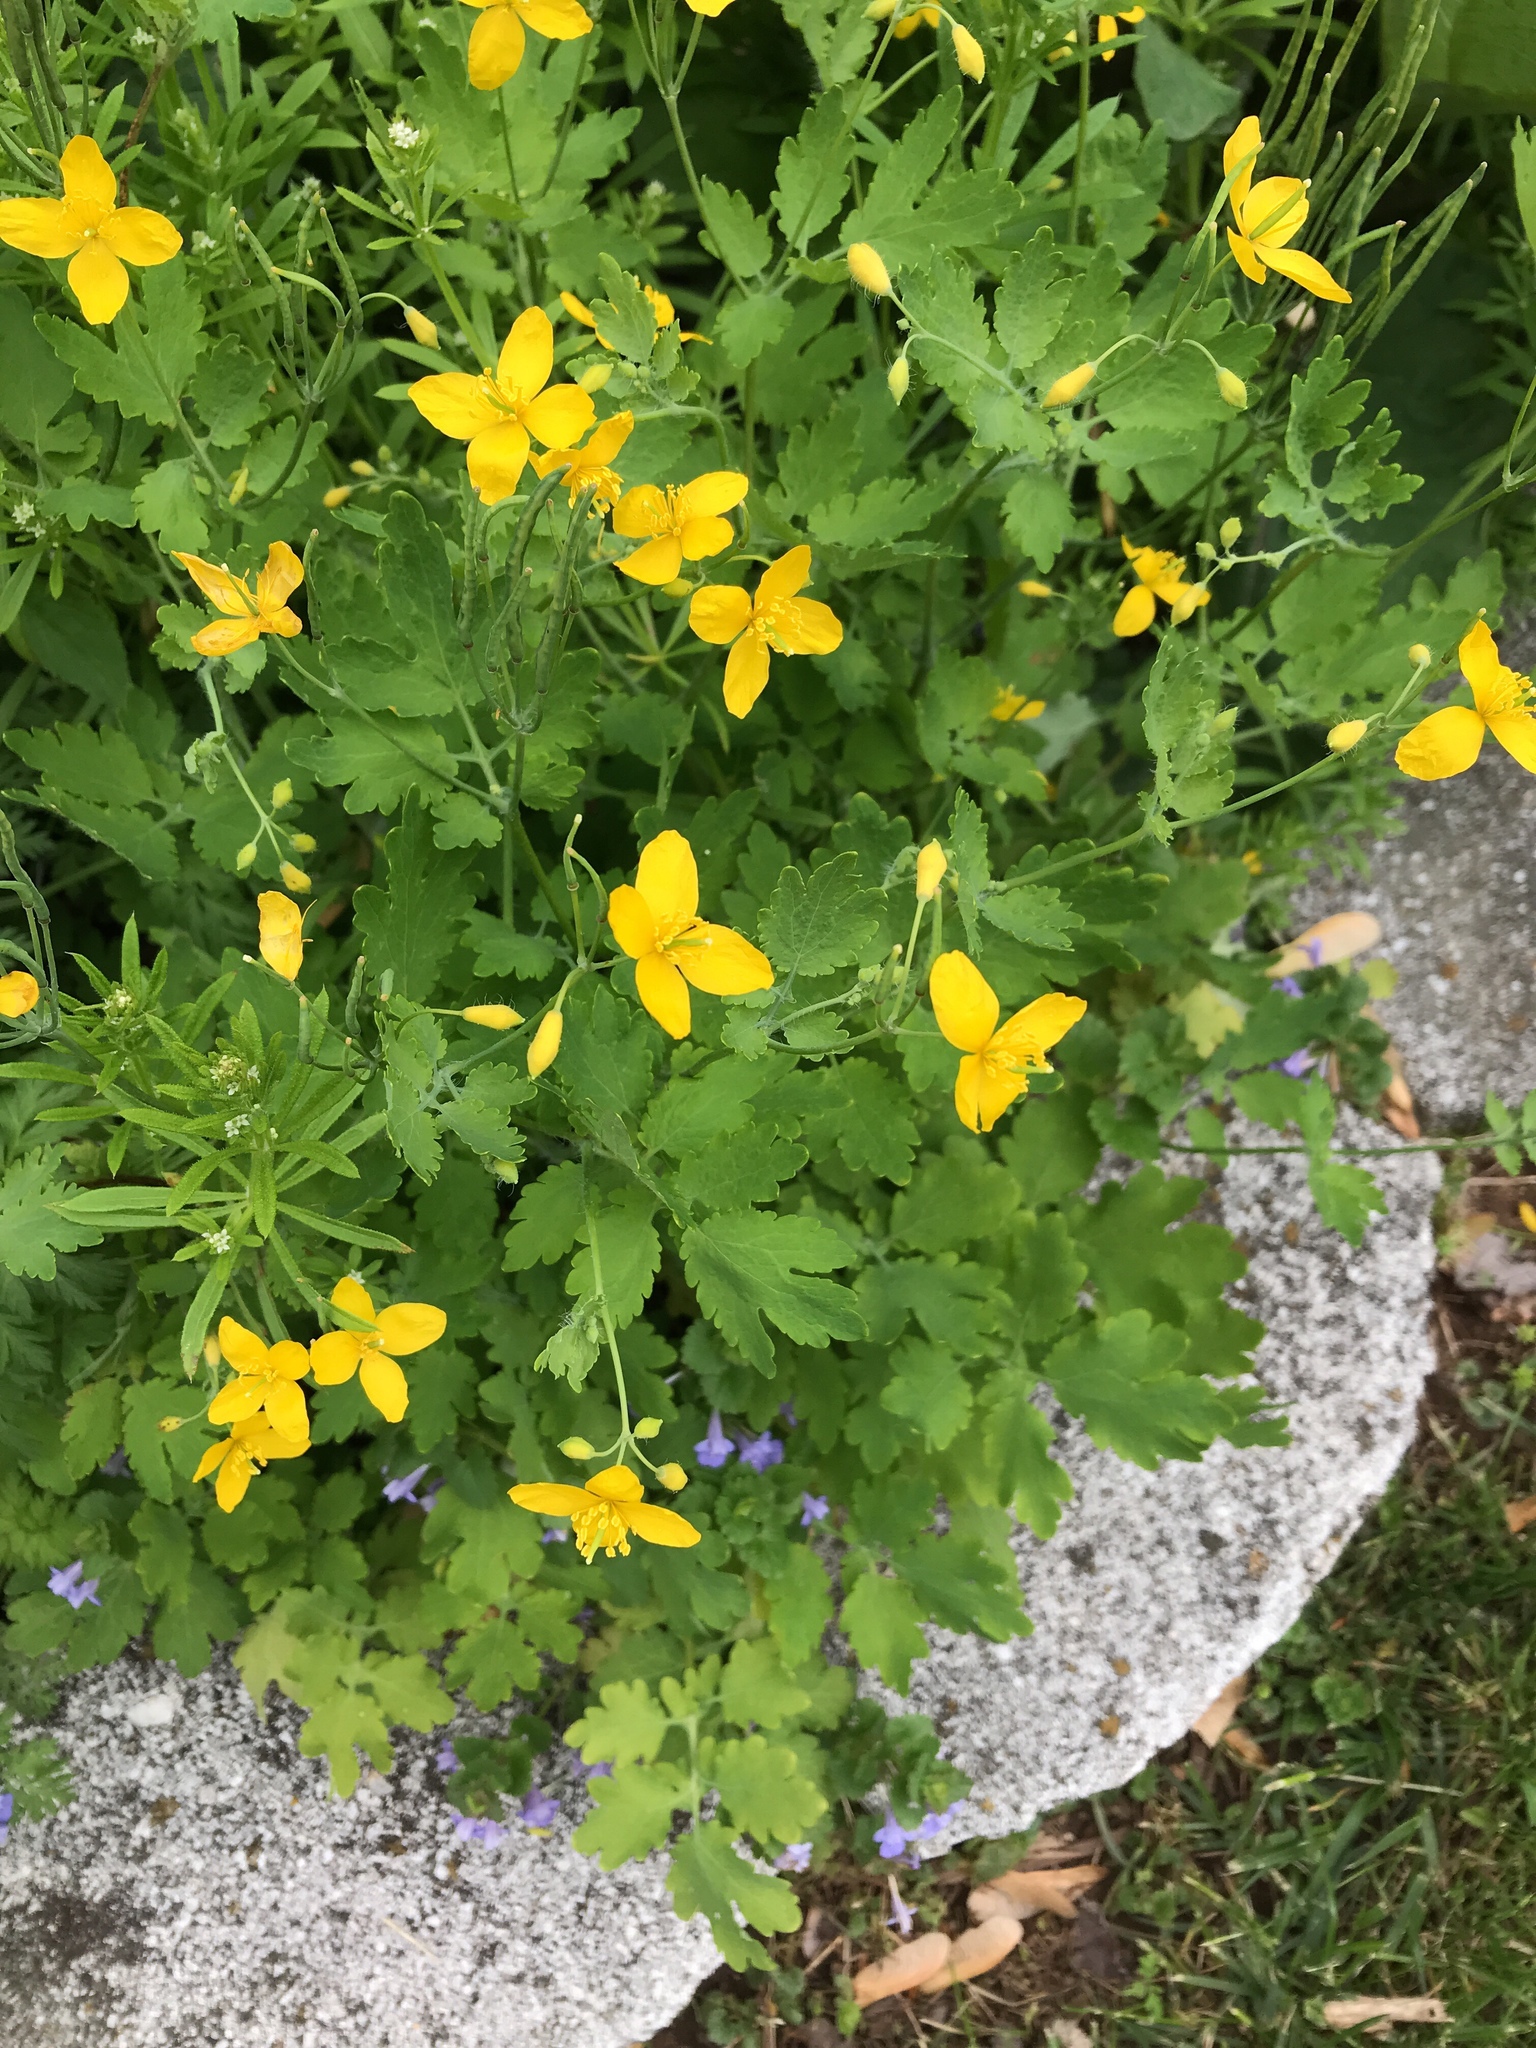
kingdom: Plantae
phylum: Tracheophyta
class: Magnoliopsida
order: Ranunculales
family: Papaveraceae
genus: Chelidonium
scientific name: Chelidonium majus
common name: Greater celandine
